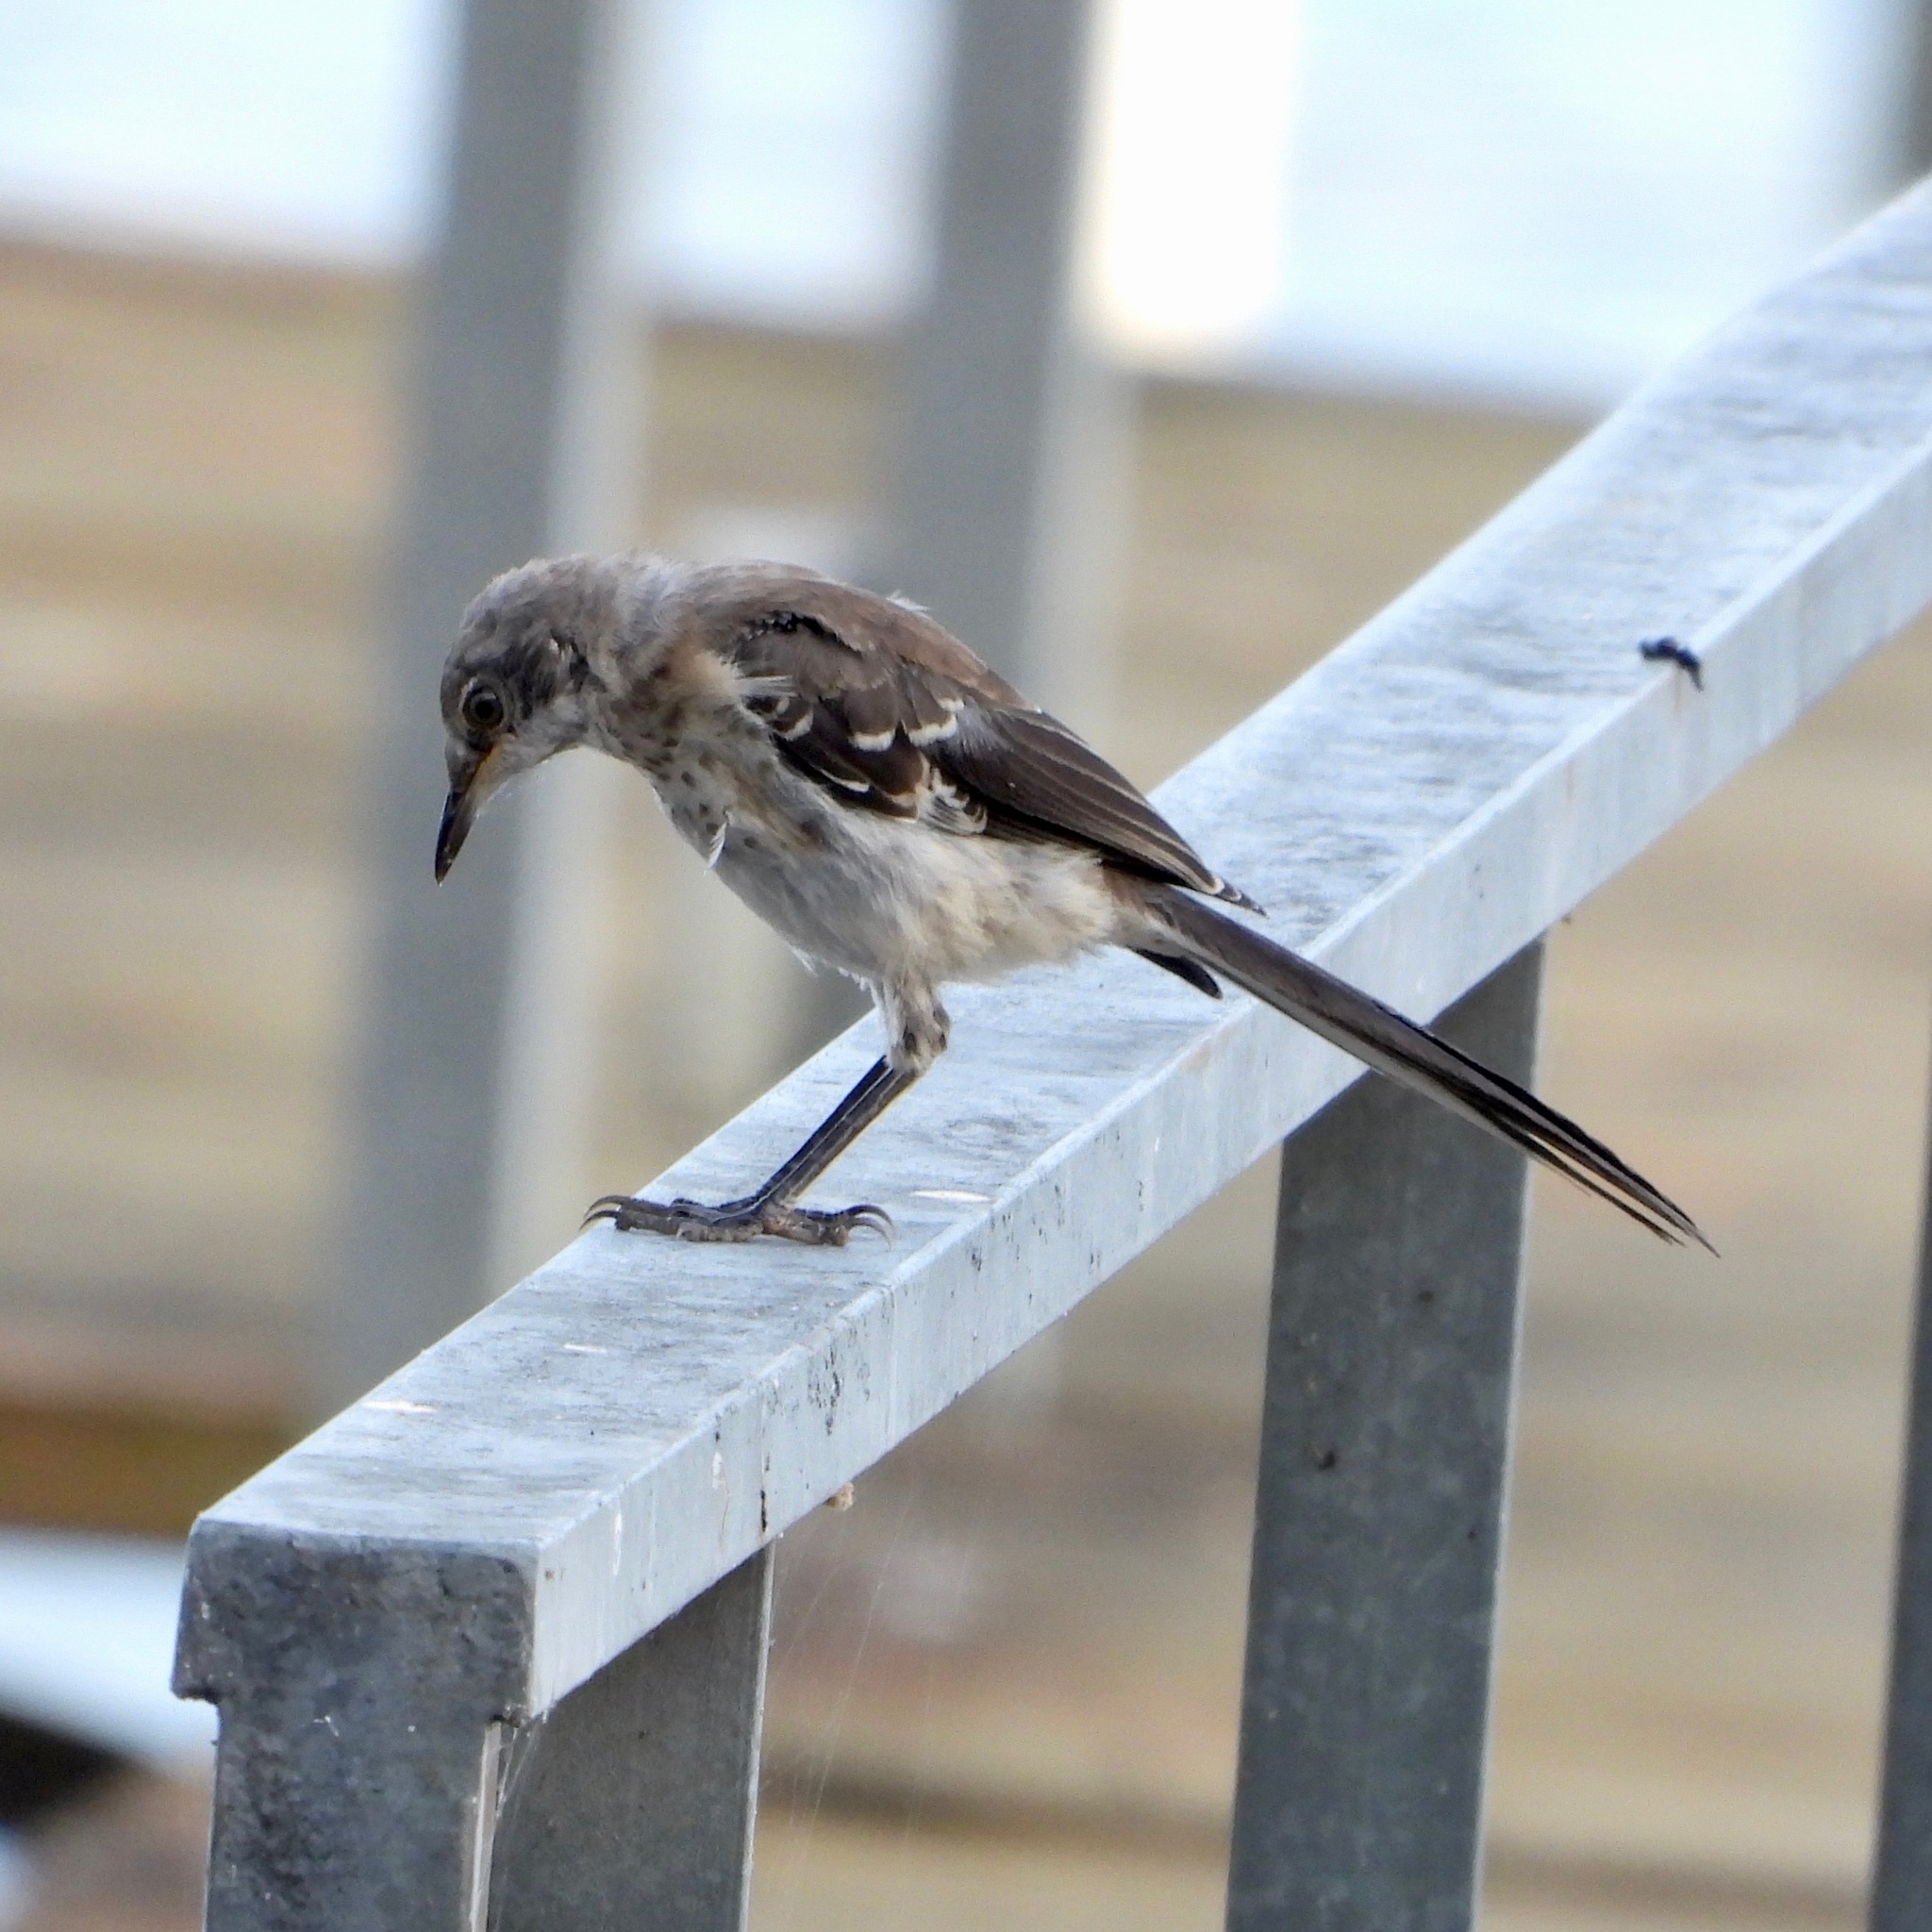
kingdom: Animalia
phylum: Chordata
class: Aves
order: Passeriformes
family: Mimidae
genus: Mimus
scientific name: Mimus polyglottos
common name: Northern mockingbird
